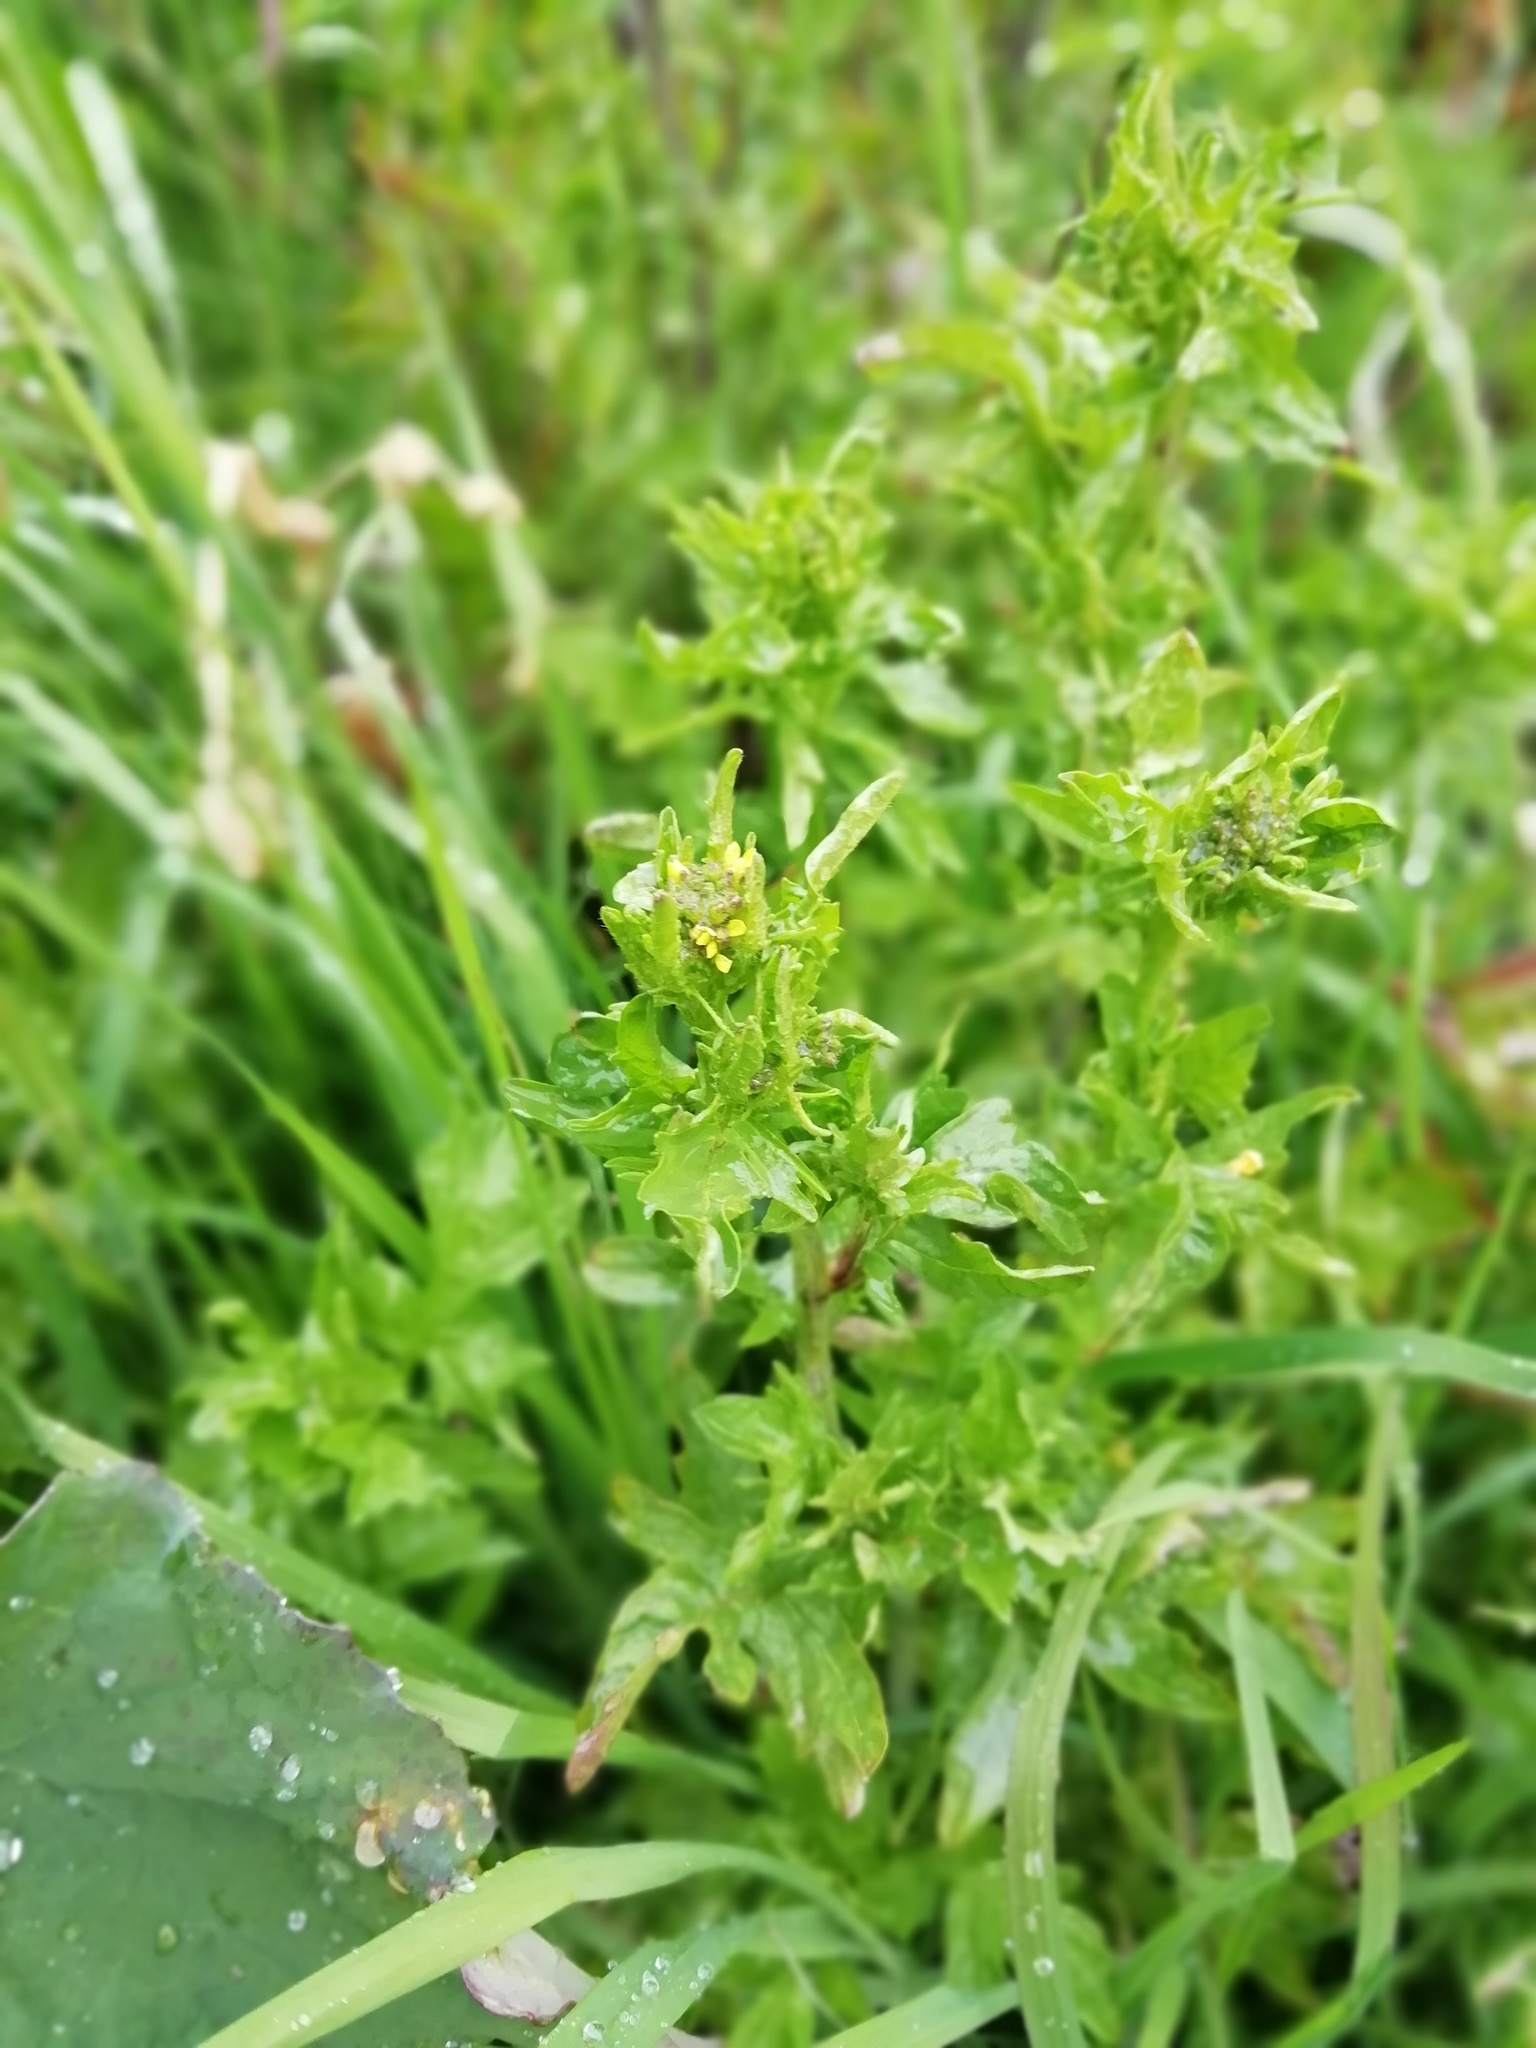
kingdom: Plantae
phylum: Tracheophyta
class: Magnoliopsida
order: Brassicales
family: Brassicaceae
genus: Sisymbrium
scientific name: Sisymbrium officinale
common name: Hedge mustard
